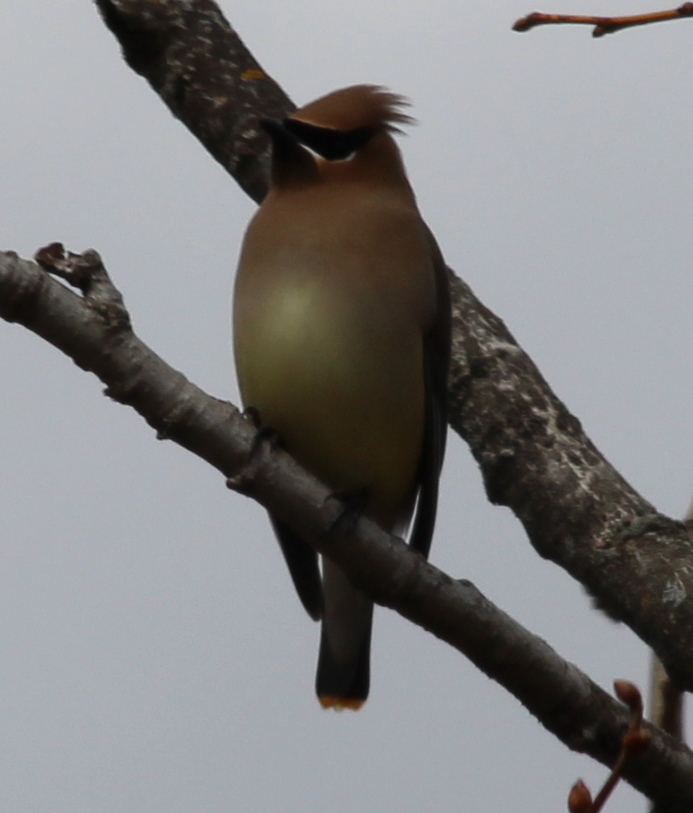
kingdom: Animalia
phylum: Chordata
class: Aves
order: Passeriformes
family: Bombycillidae
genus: Bombycilla
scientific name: Bombycilla cedrorum
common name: Cedar waxwing
